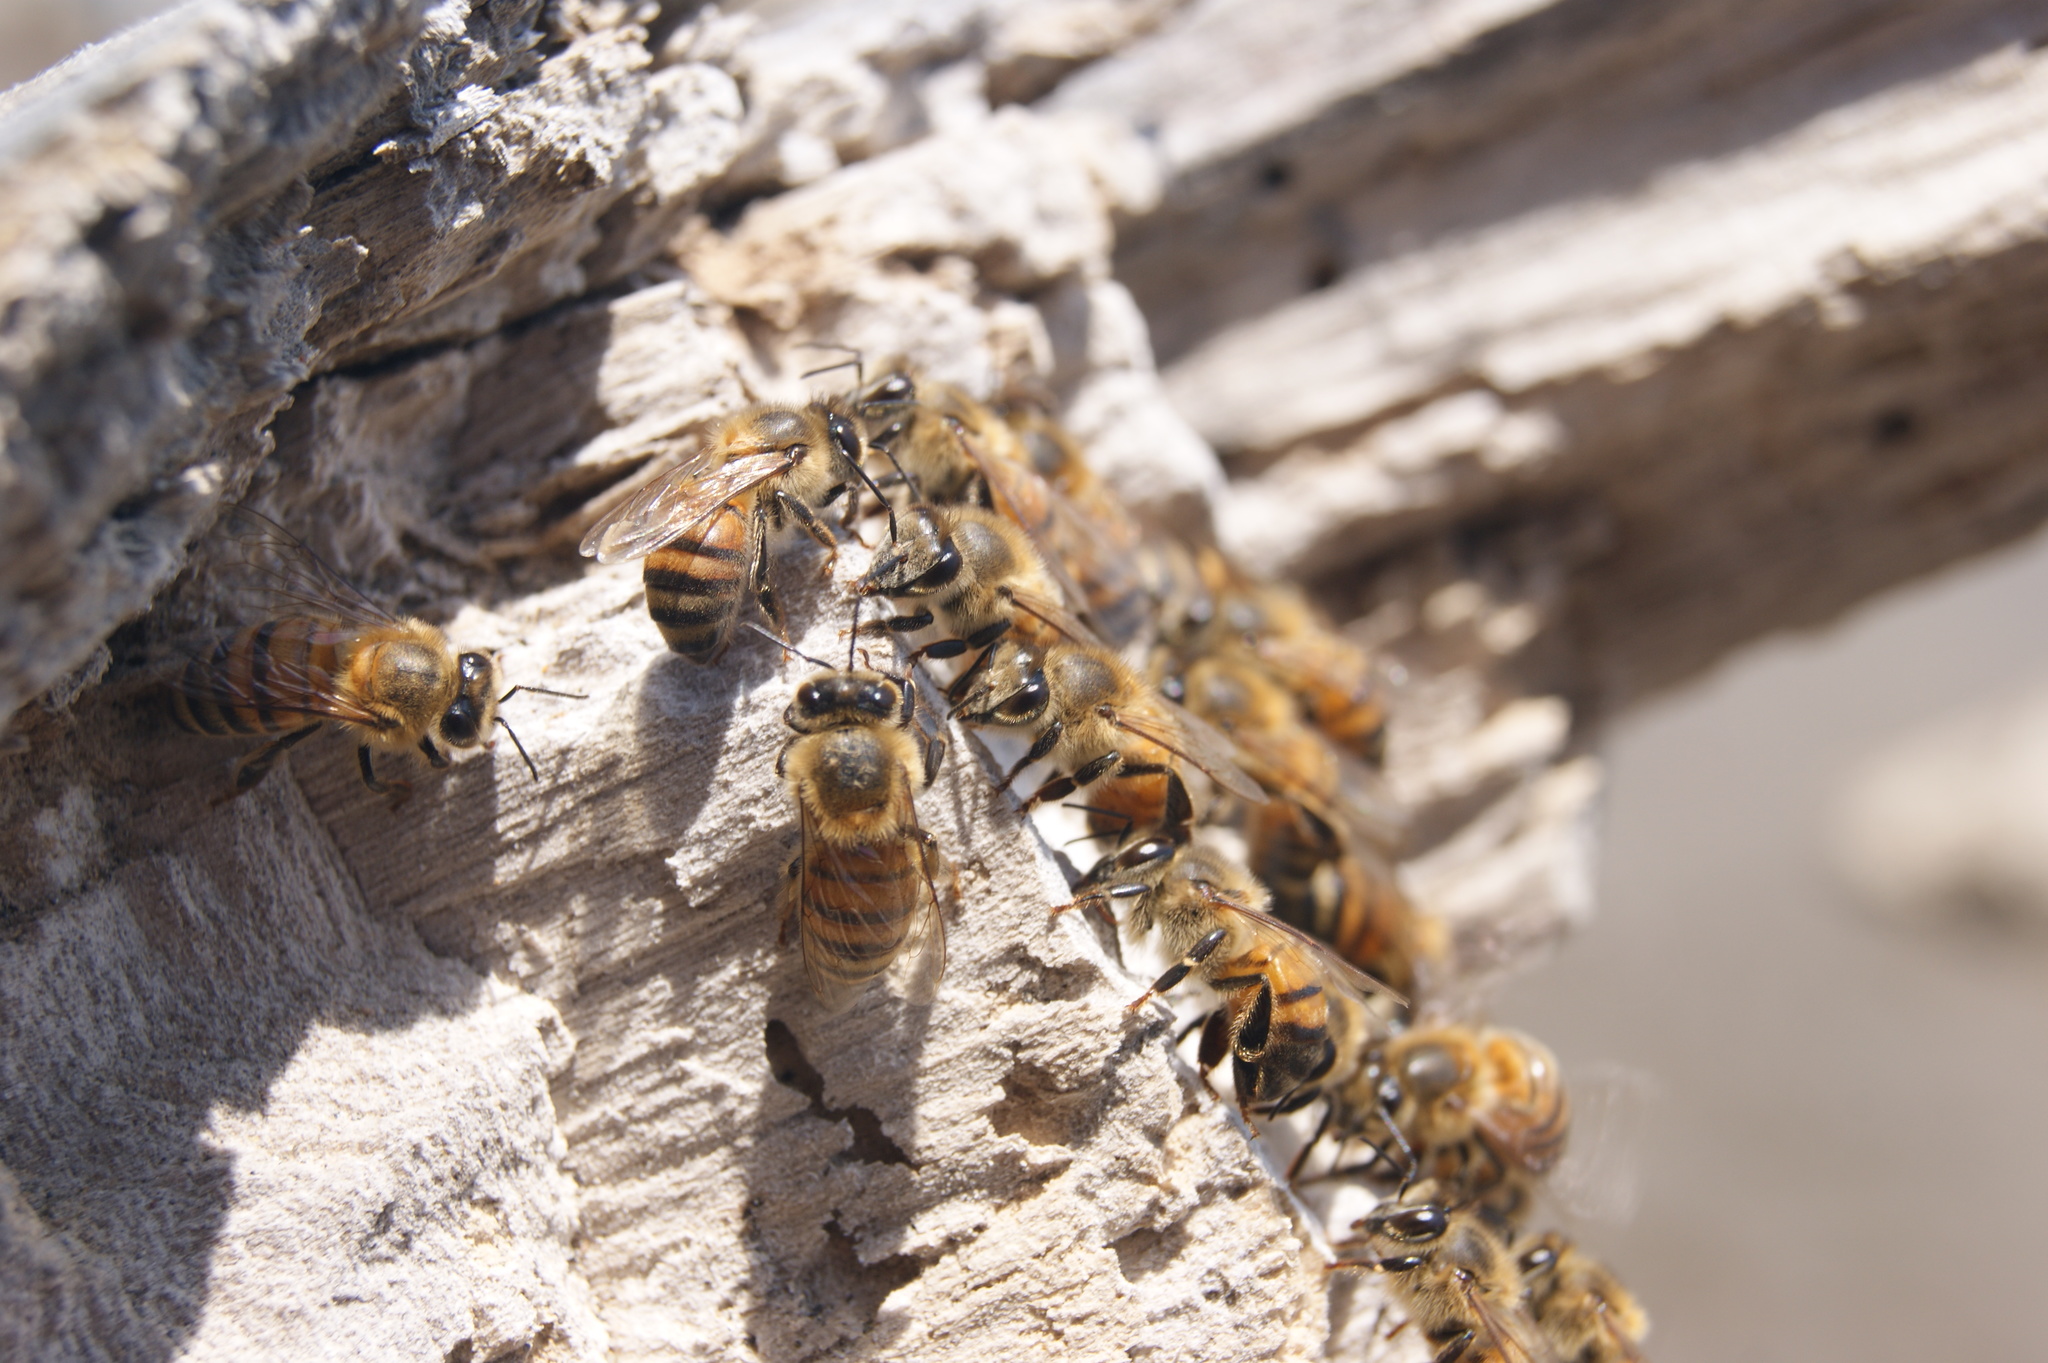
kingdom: Animalia
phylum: Arthropoda
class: Insecta
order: Hymenoptera
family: Apidae
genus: Apis
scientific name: Apis mellifera
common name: Honey bee
